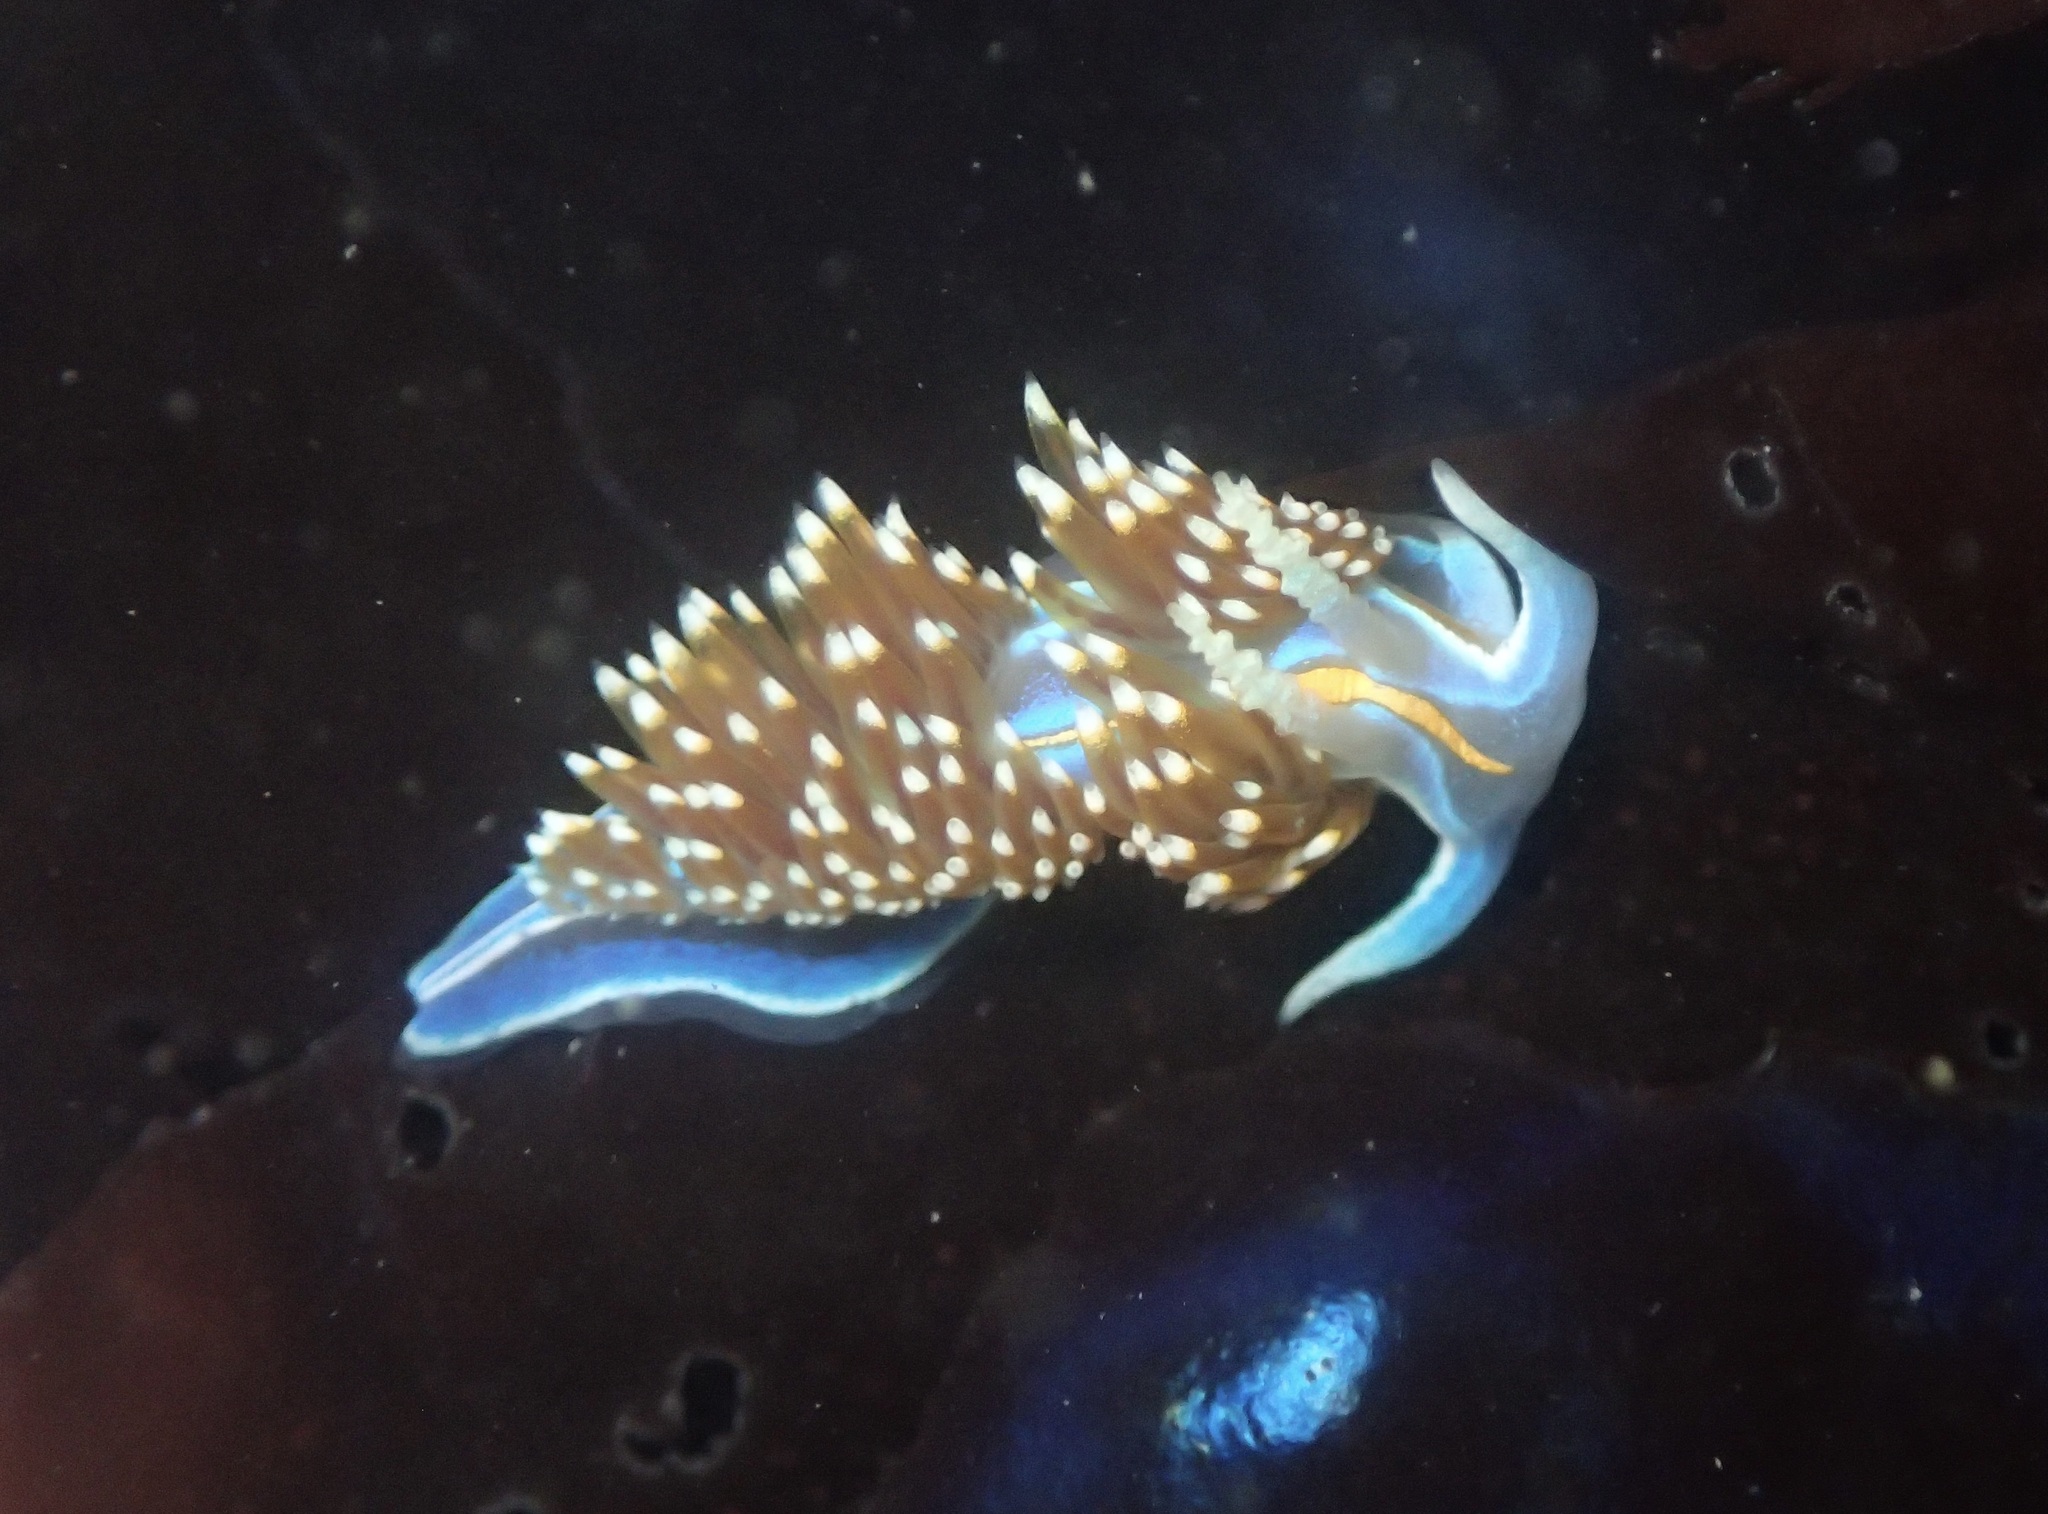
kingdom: Animalia
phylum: Mollusca
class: Gastropoda
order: Nudibranchia
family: Myrrhinidae
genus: Hermissenda
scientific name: Hermissenda opalescens
